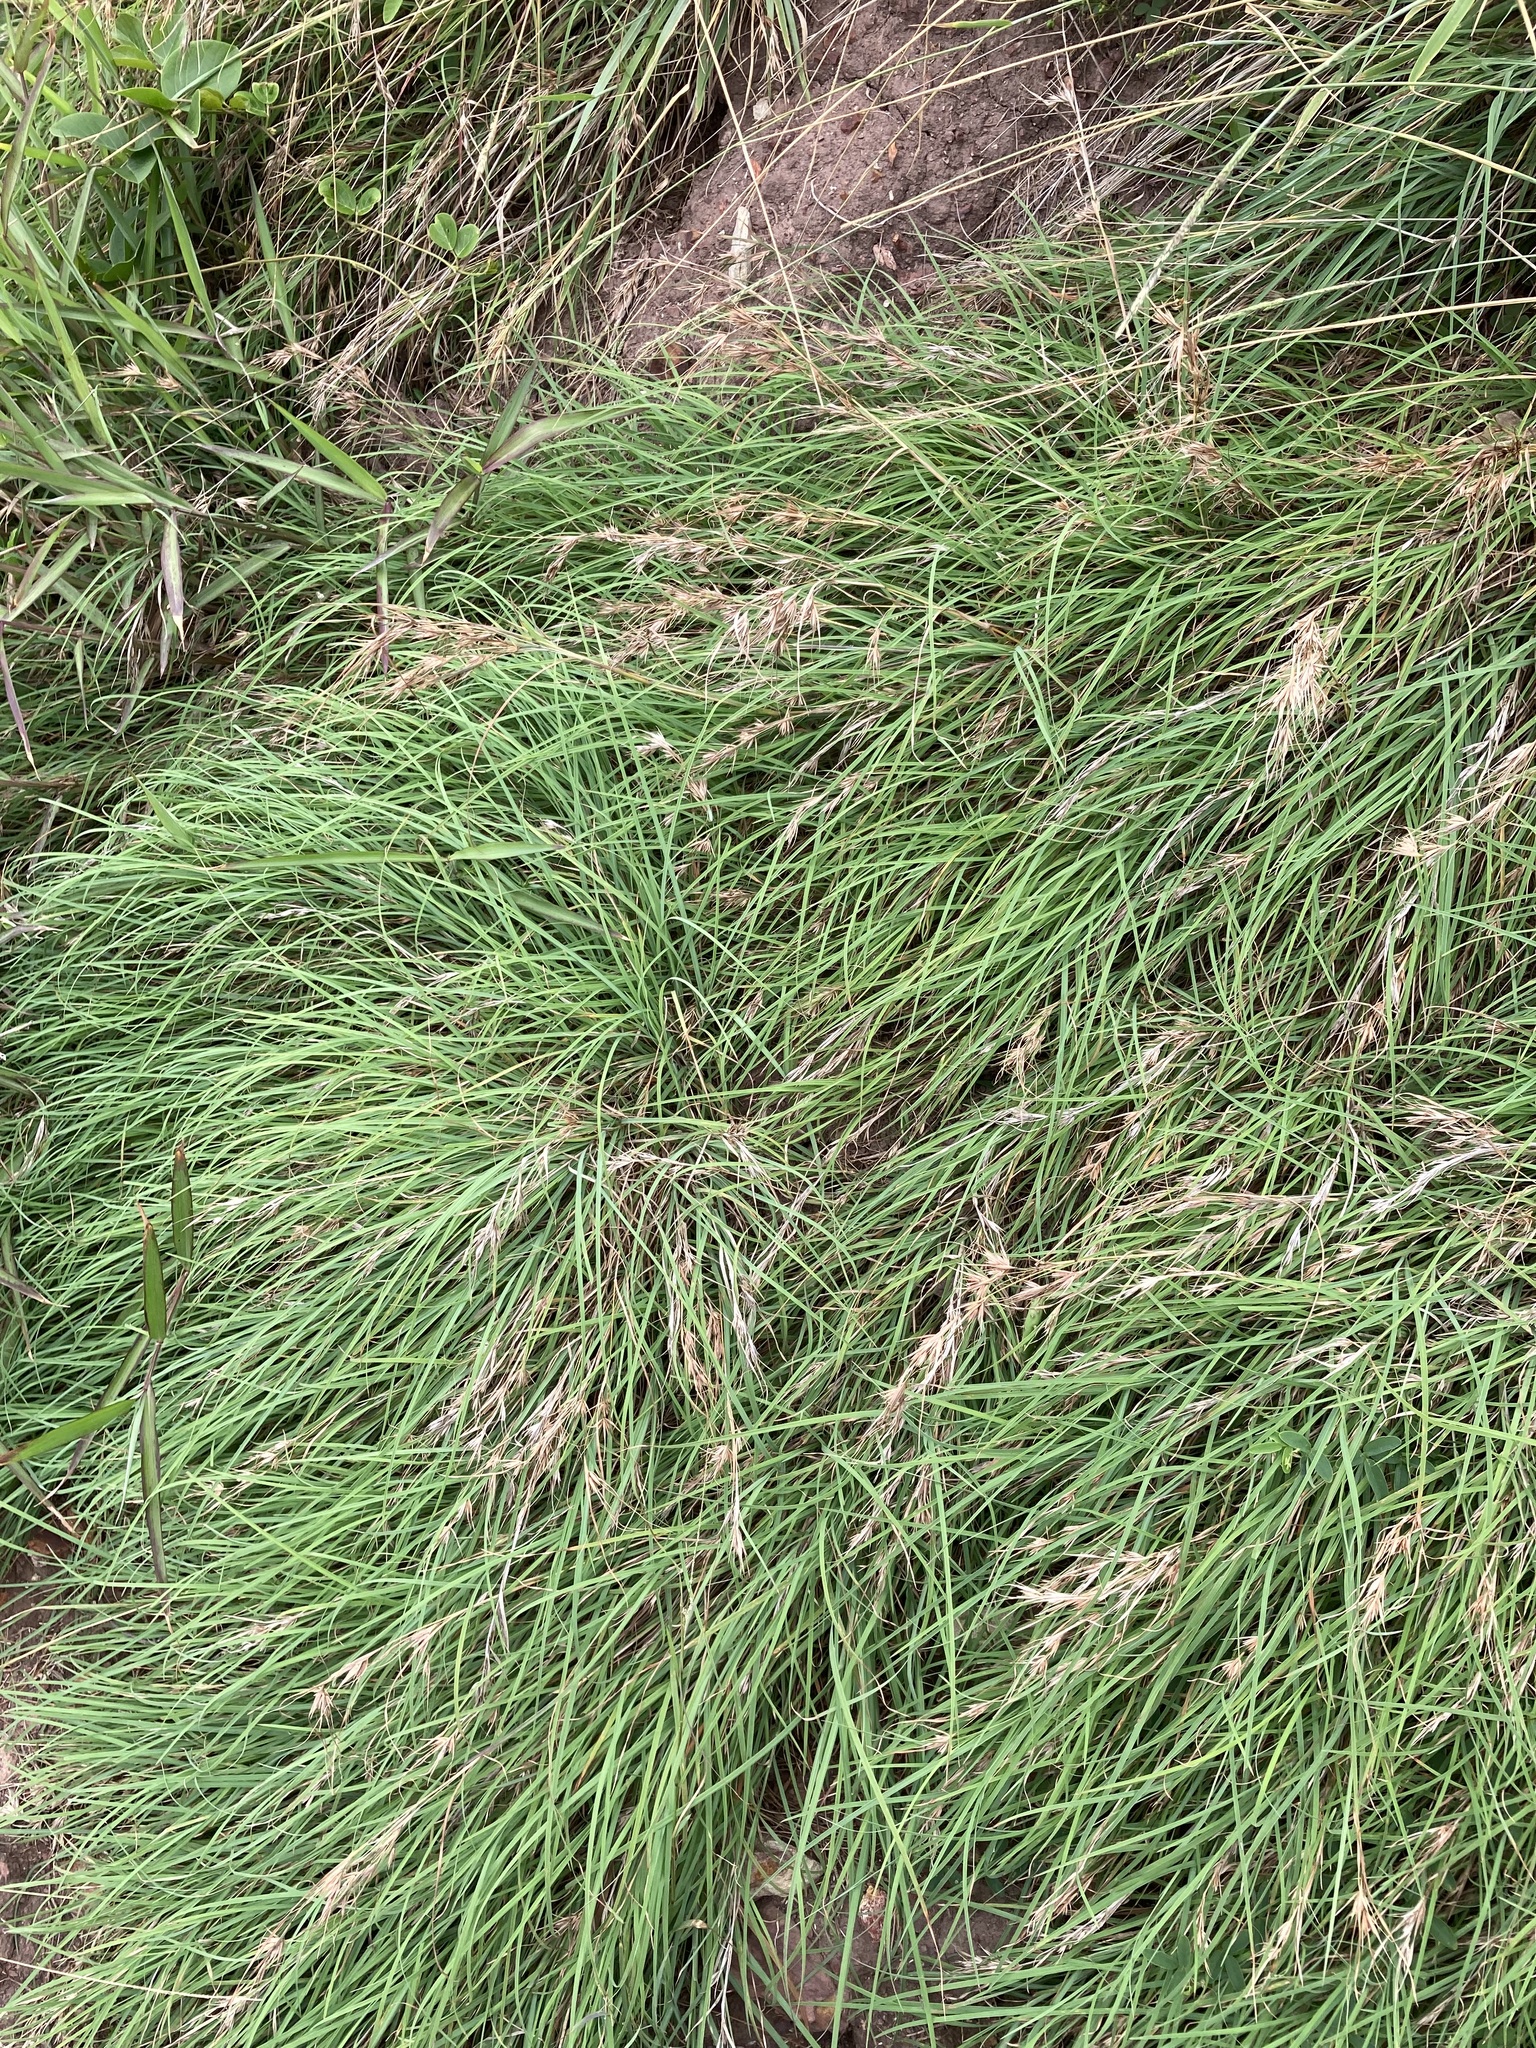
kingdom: Plantae
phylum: Tracheophyta
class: Liliopsida
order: Poales
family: Poaceae
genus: Themeda
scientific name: Themeda triandra
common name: Kangaroo grass
